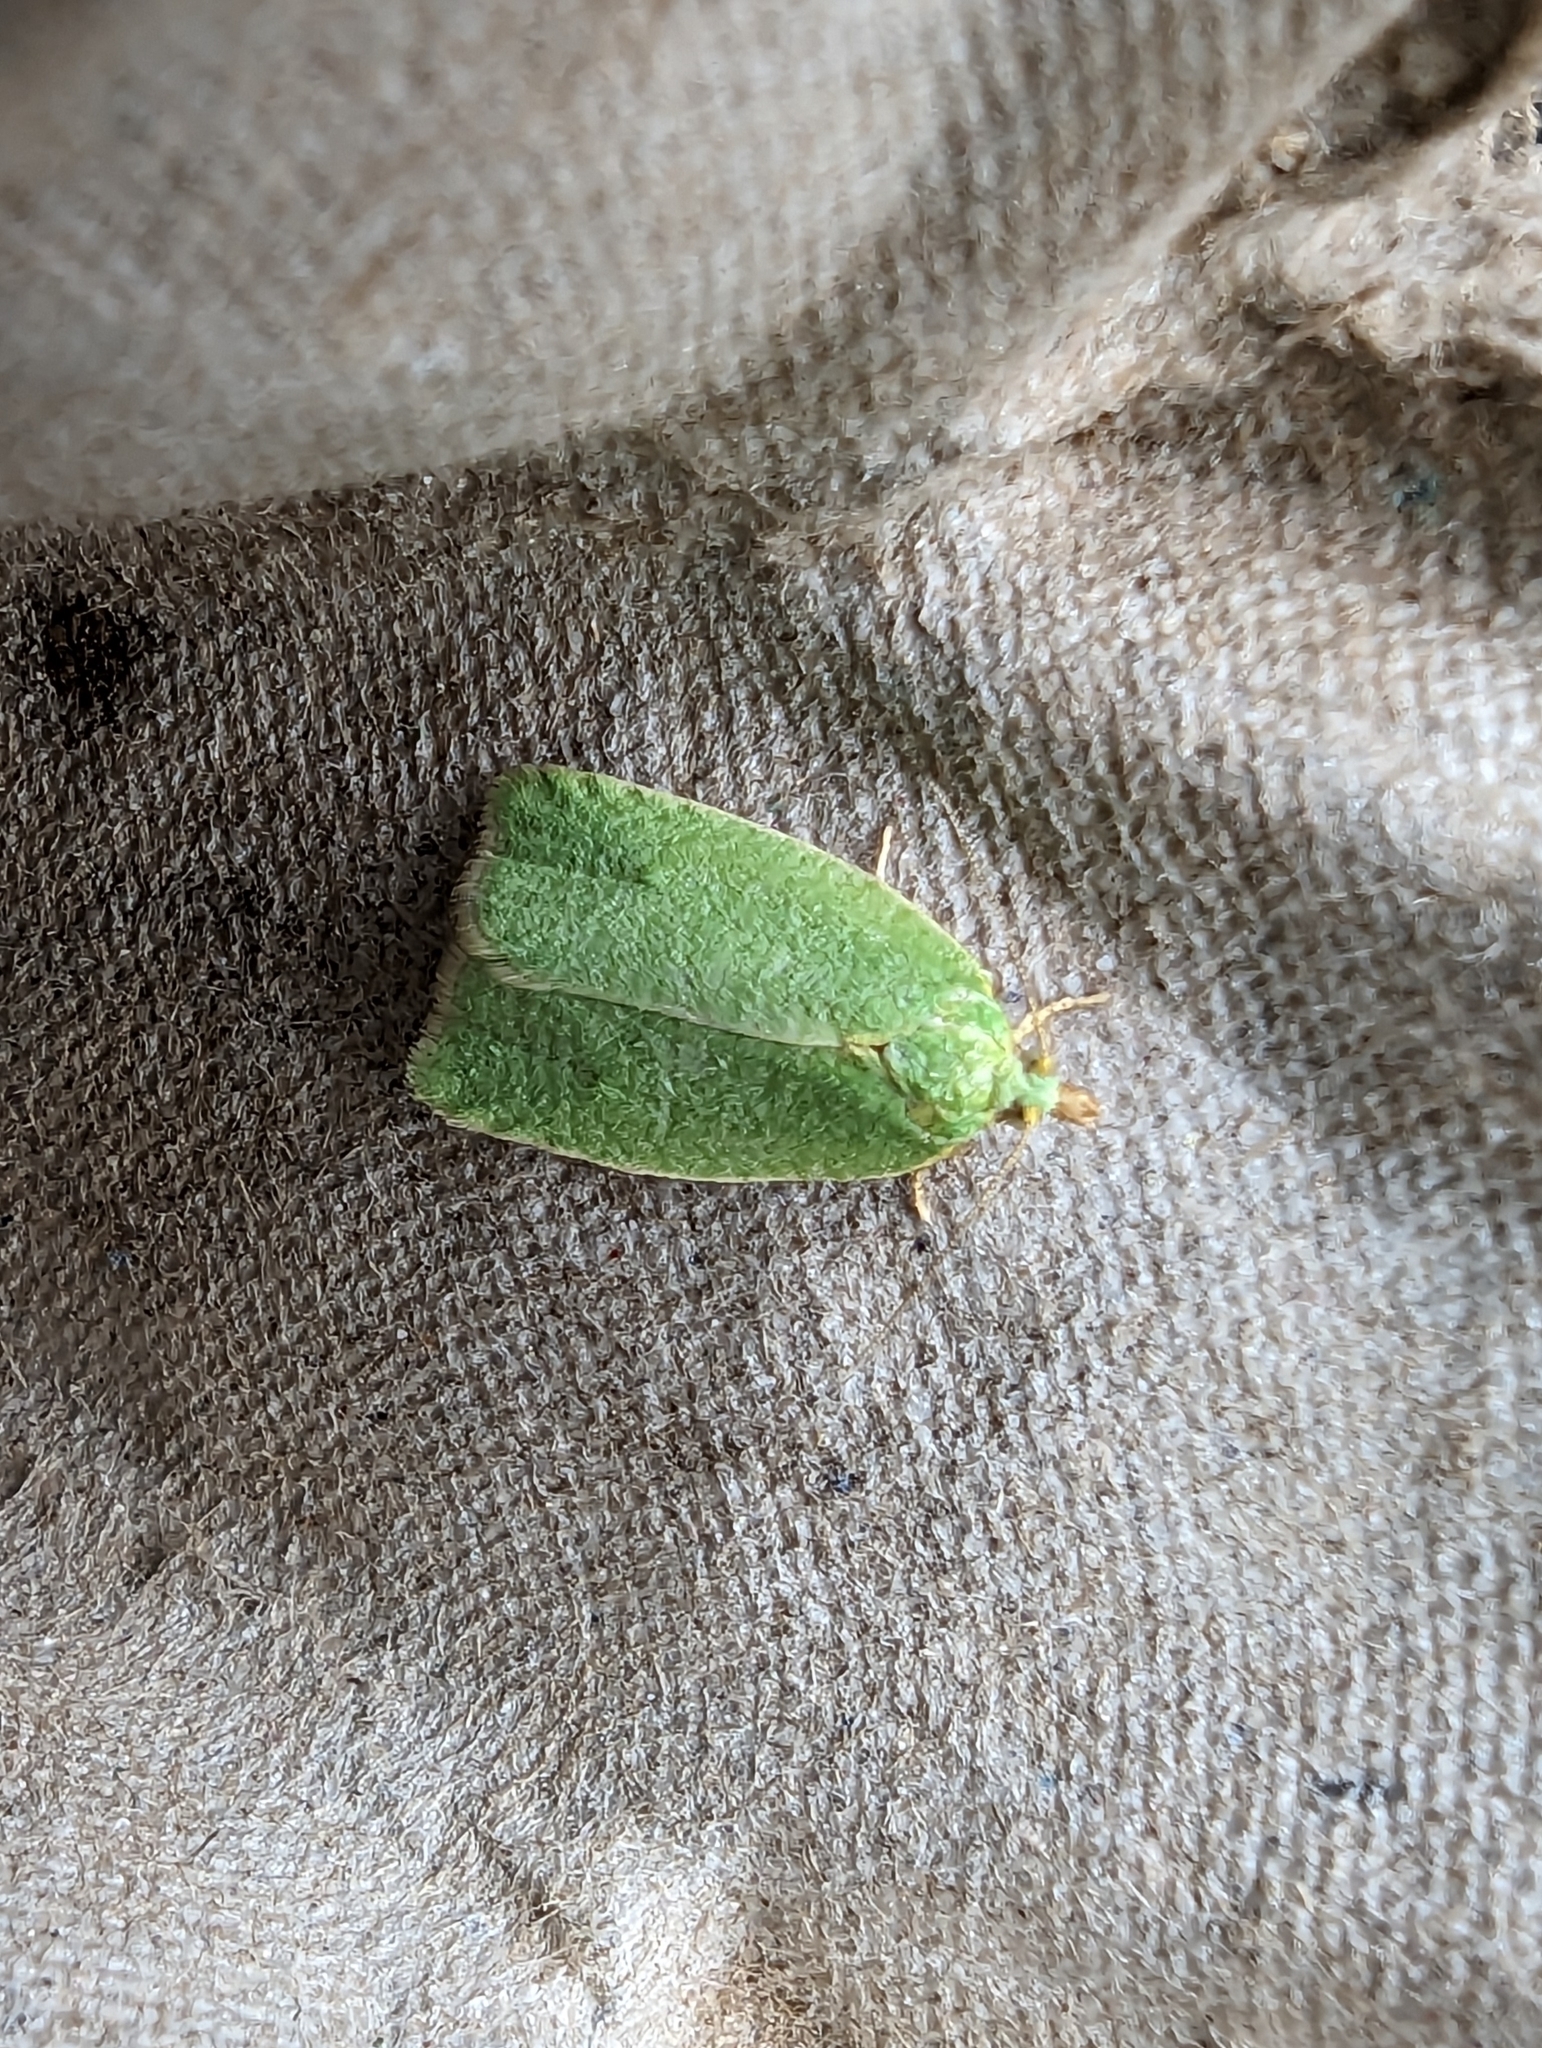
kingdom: Animalia
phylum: Arthropoda
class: Insecta
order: Lepidoptera
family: Tortricidae
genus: Tortrix
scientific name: Tortrix viridana
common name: Green oak tortrix
